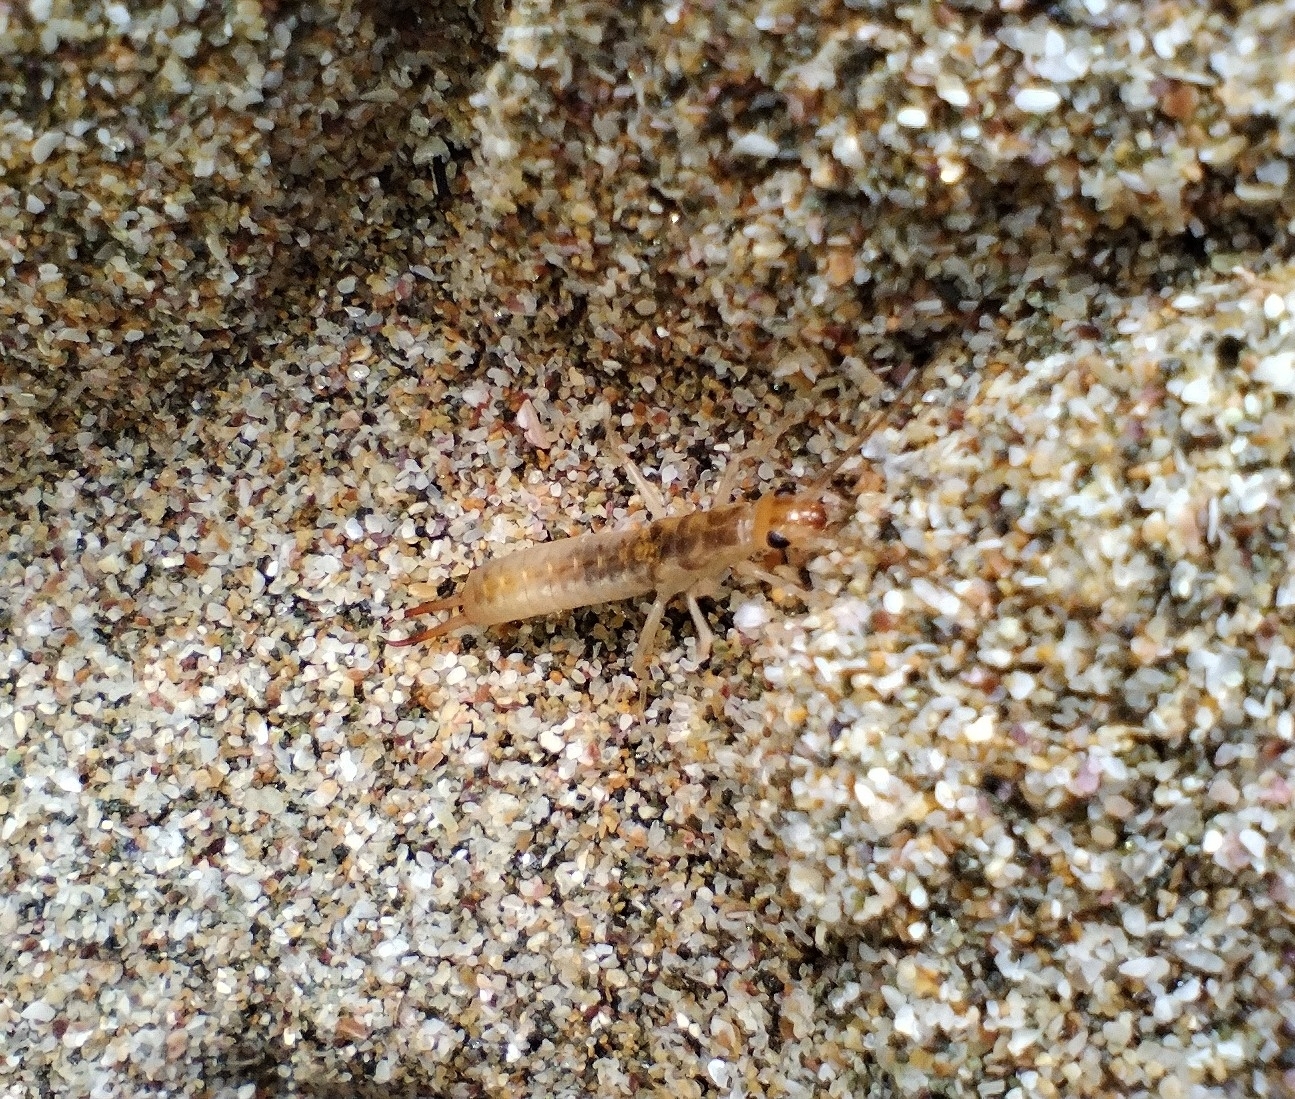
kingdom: Animalia
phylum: Arthropoda
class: Insecta
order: Dermaptera
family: Labiduridae
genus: Labidura
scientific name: Labidura riparia
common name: Striped earwig
